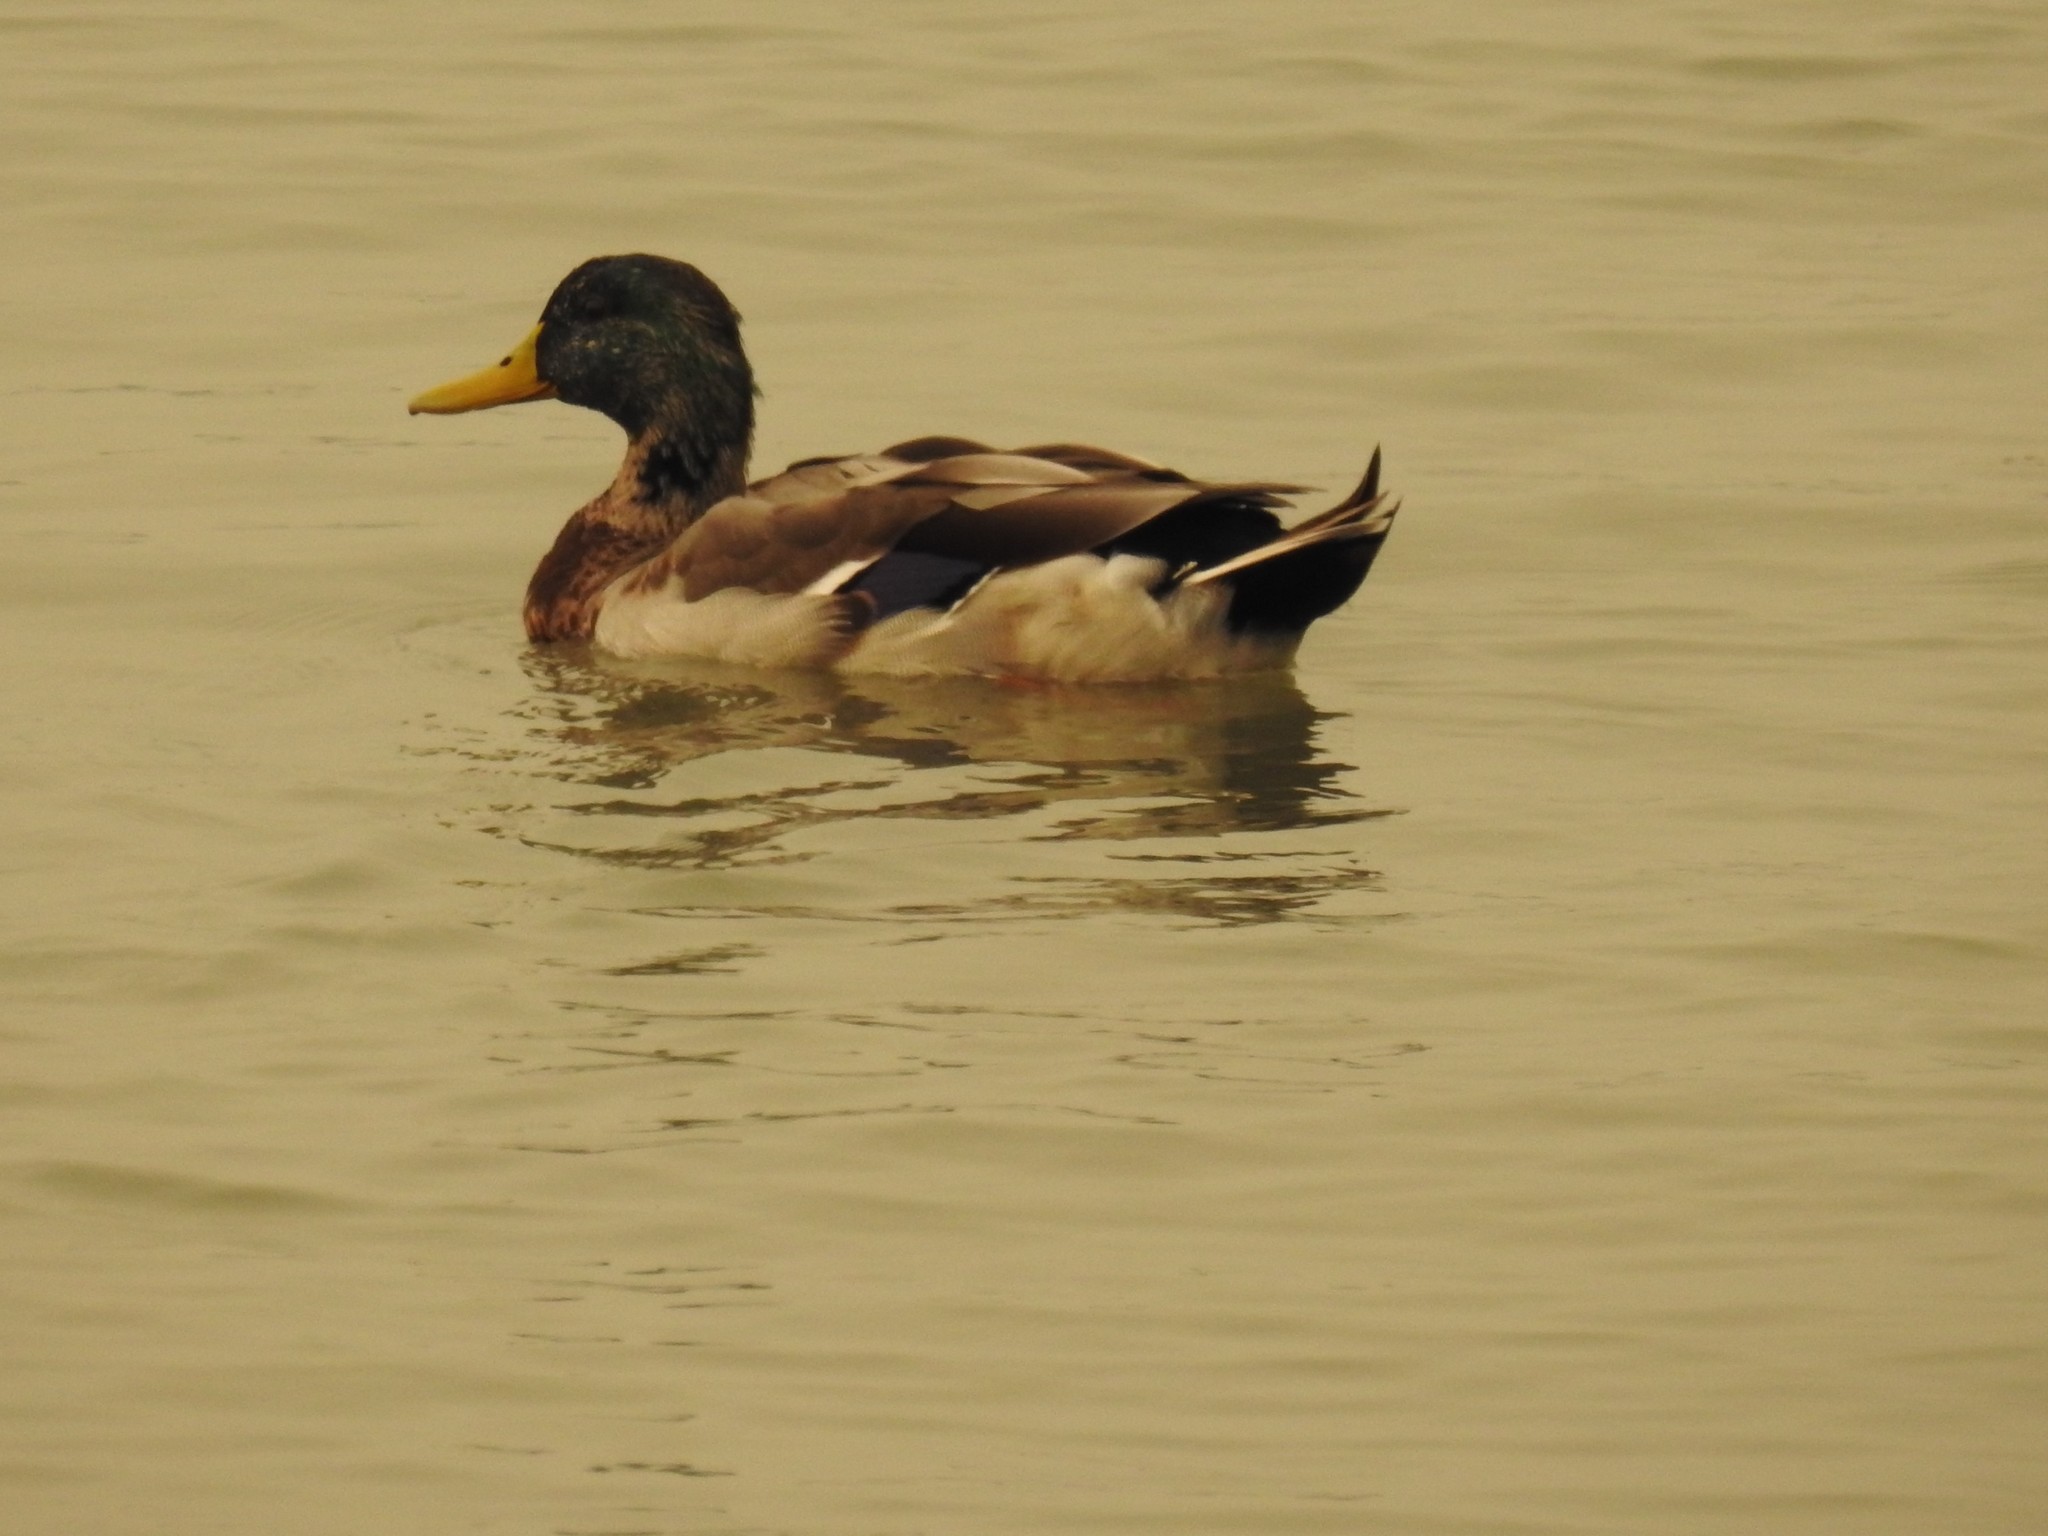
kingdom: Animalia
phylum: Chordata
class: Aves
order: Anseriformes
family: Anatidae
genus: Anas
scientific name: Anas platyrhynchos
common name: Mallard
